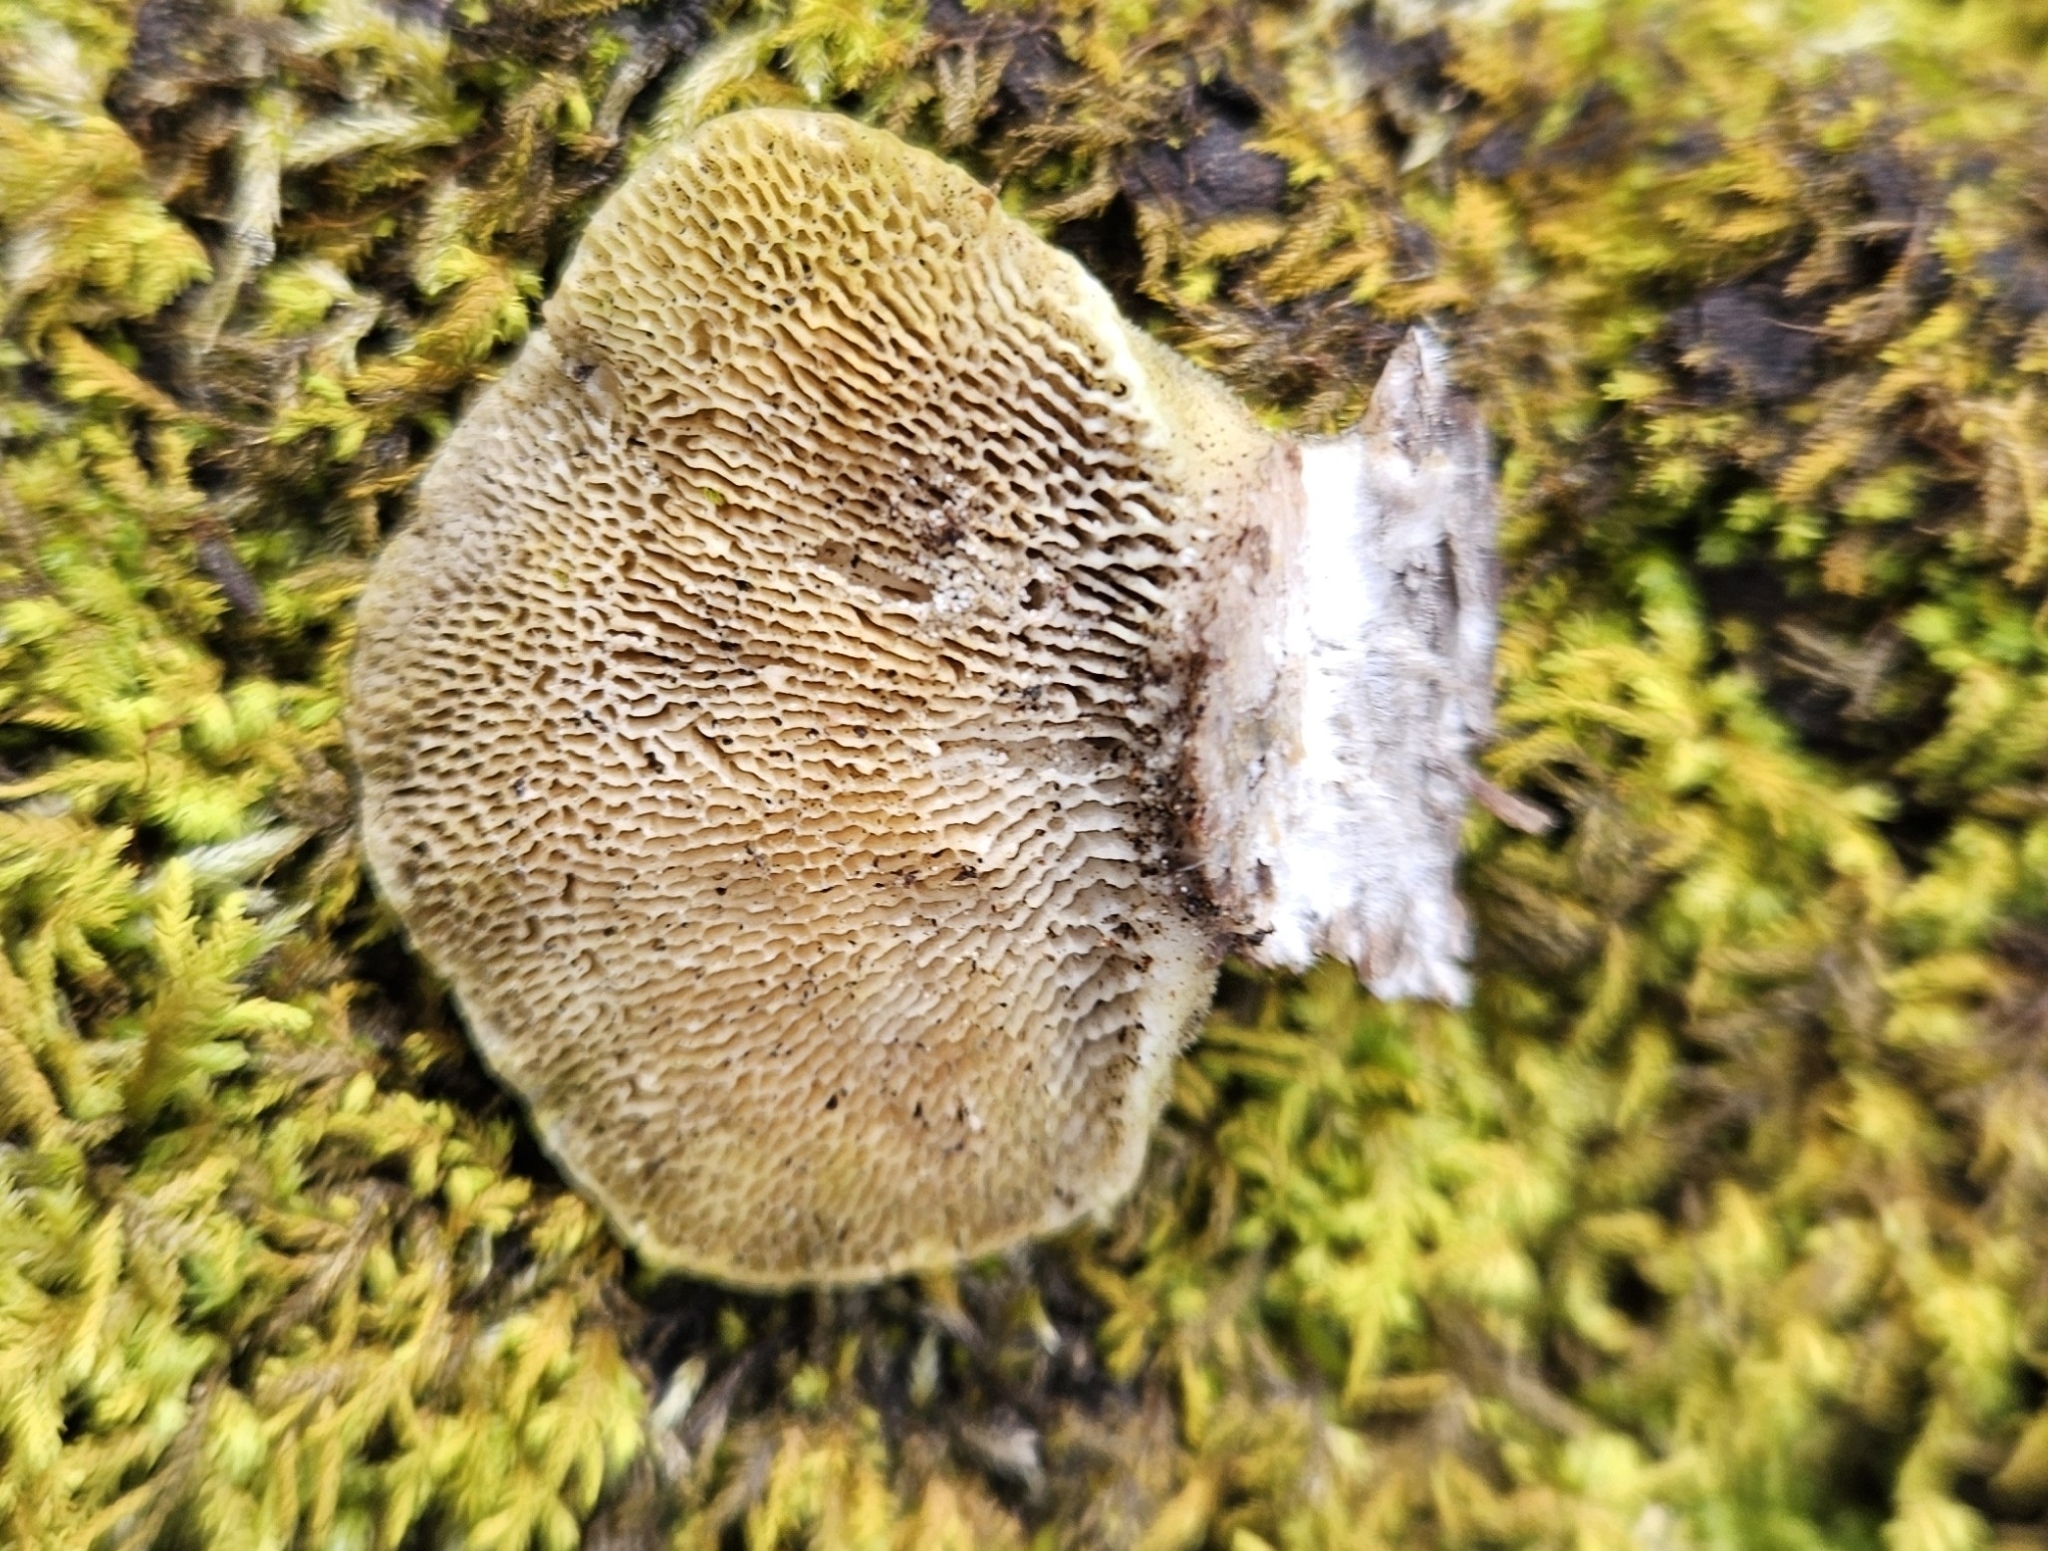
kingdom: Fungi
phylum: Basidiomycota
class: Agaricomycetes
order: Polyporales
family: Polyporaceae
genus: Trametes
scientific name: Trametes gibbosa
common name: Lumpy bracket
